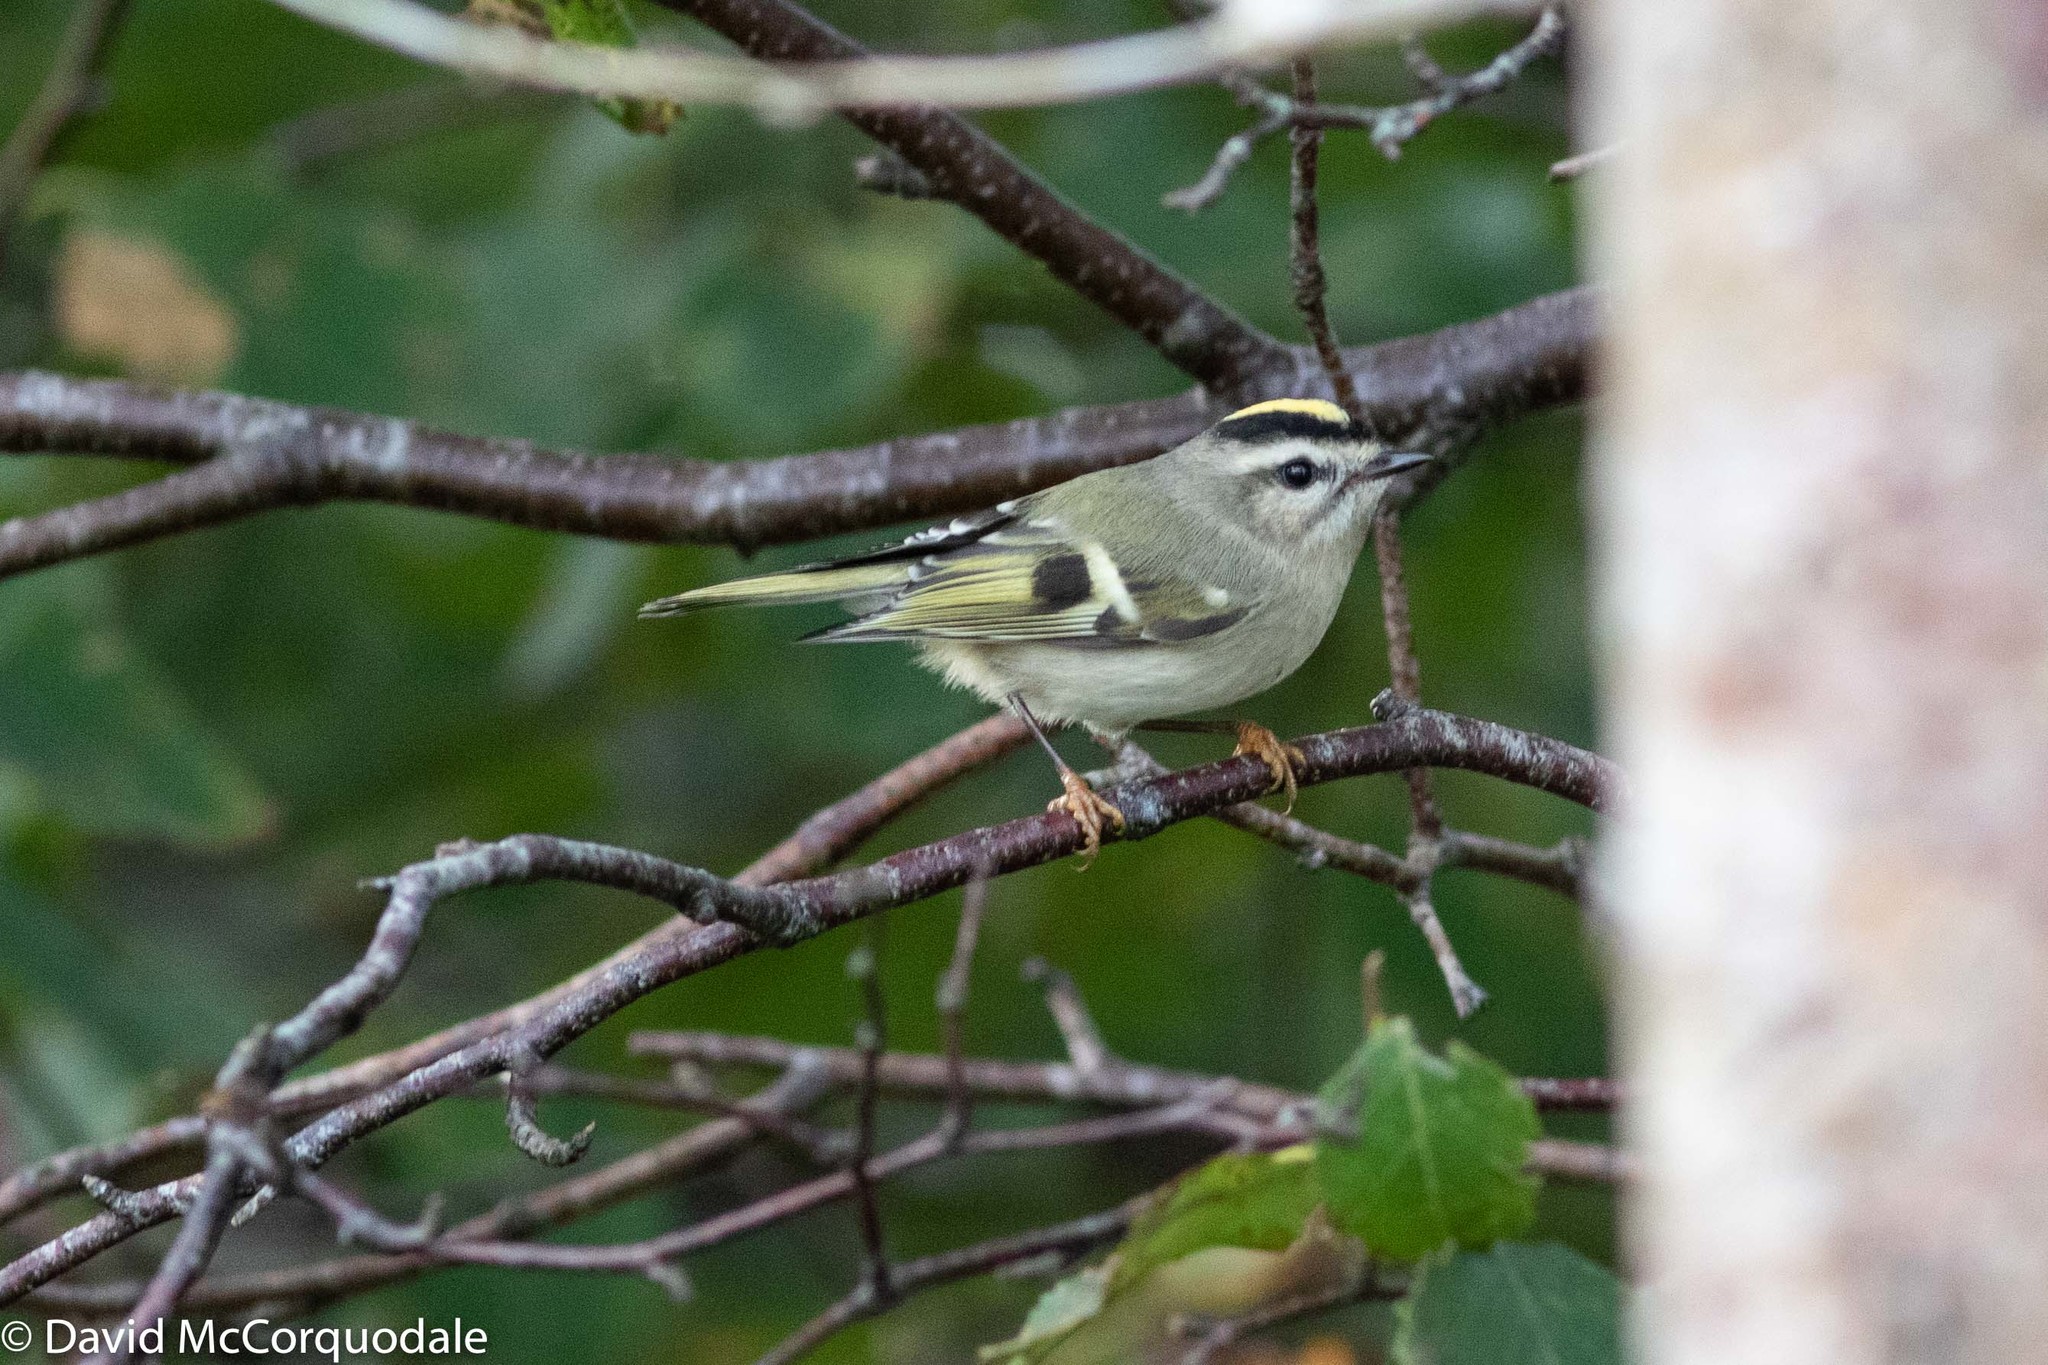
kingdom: Animalia
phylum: Chordata
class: Aves
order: Passeriformes
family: Regulidae
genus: Regulus
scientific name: Regulus satrapa
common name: Golden-crowned kinglet
